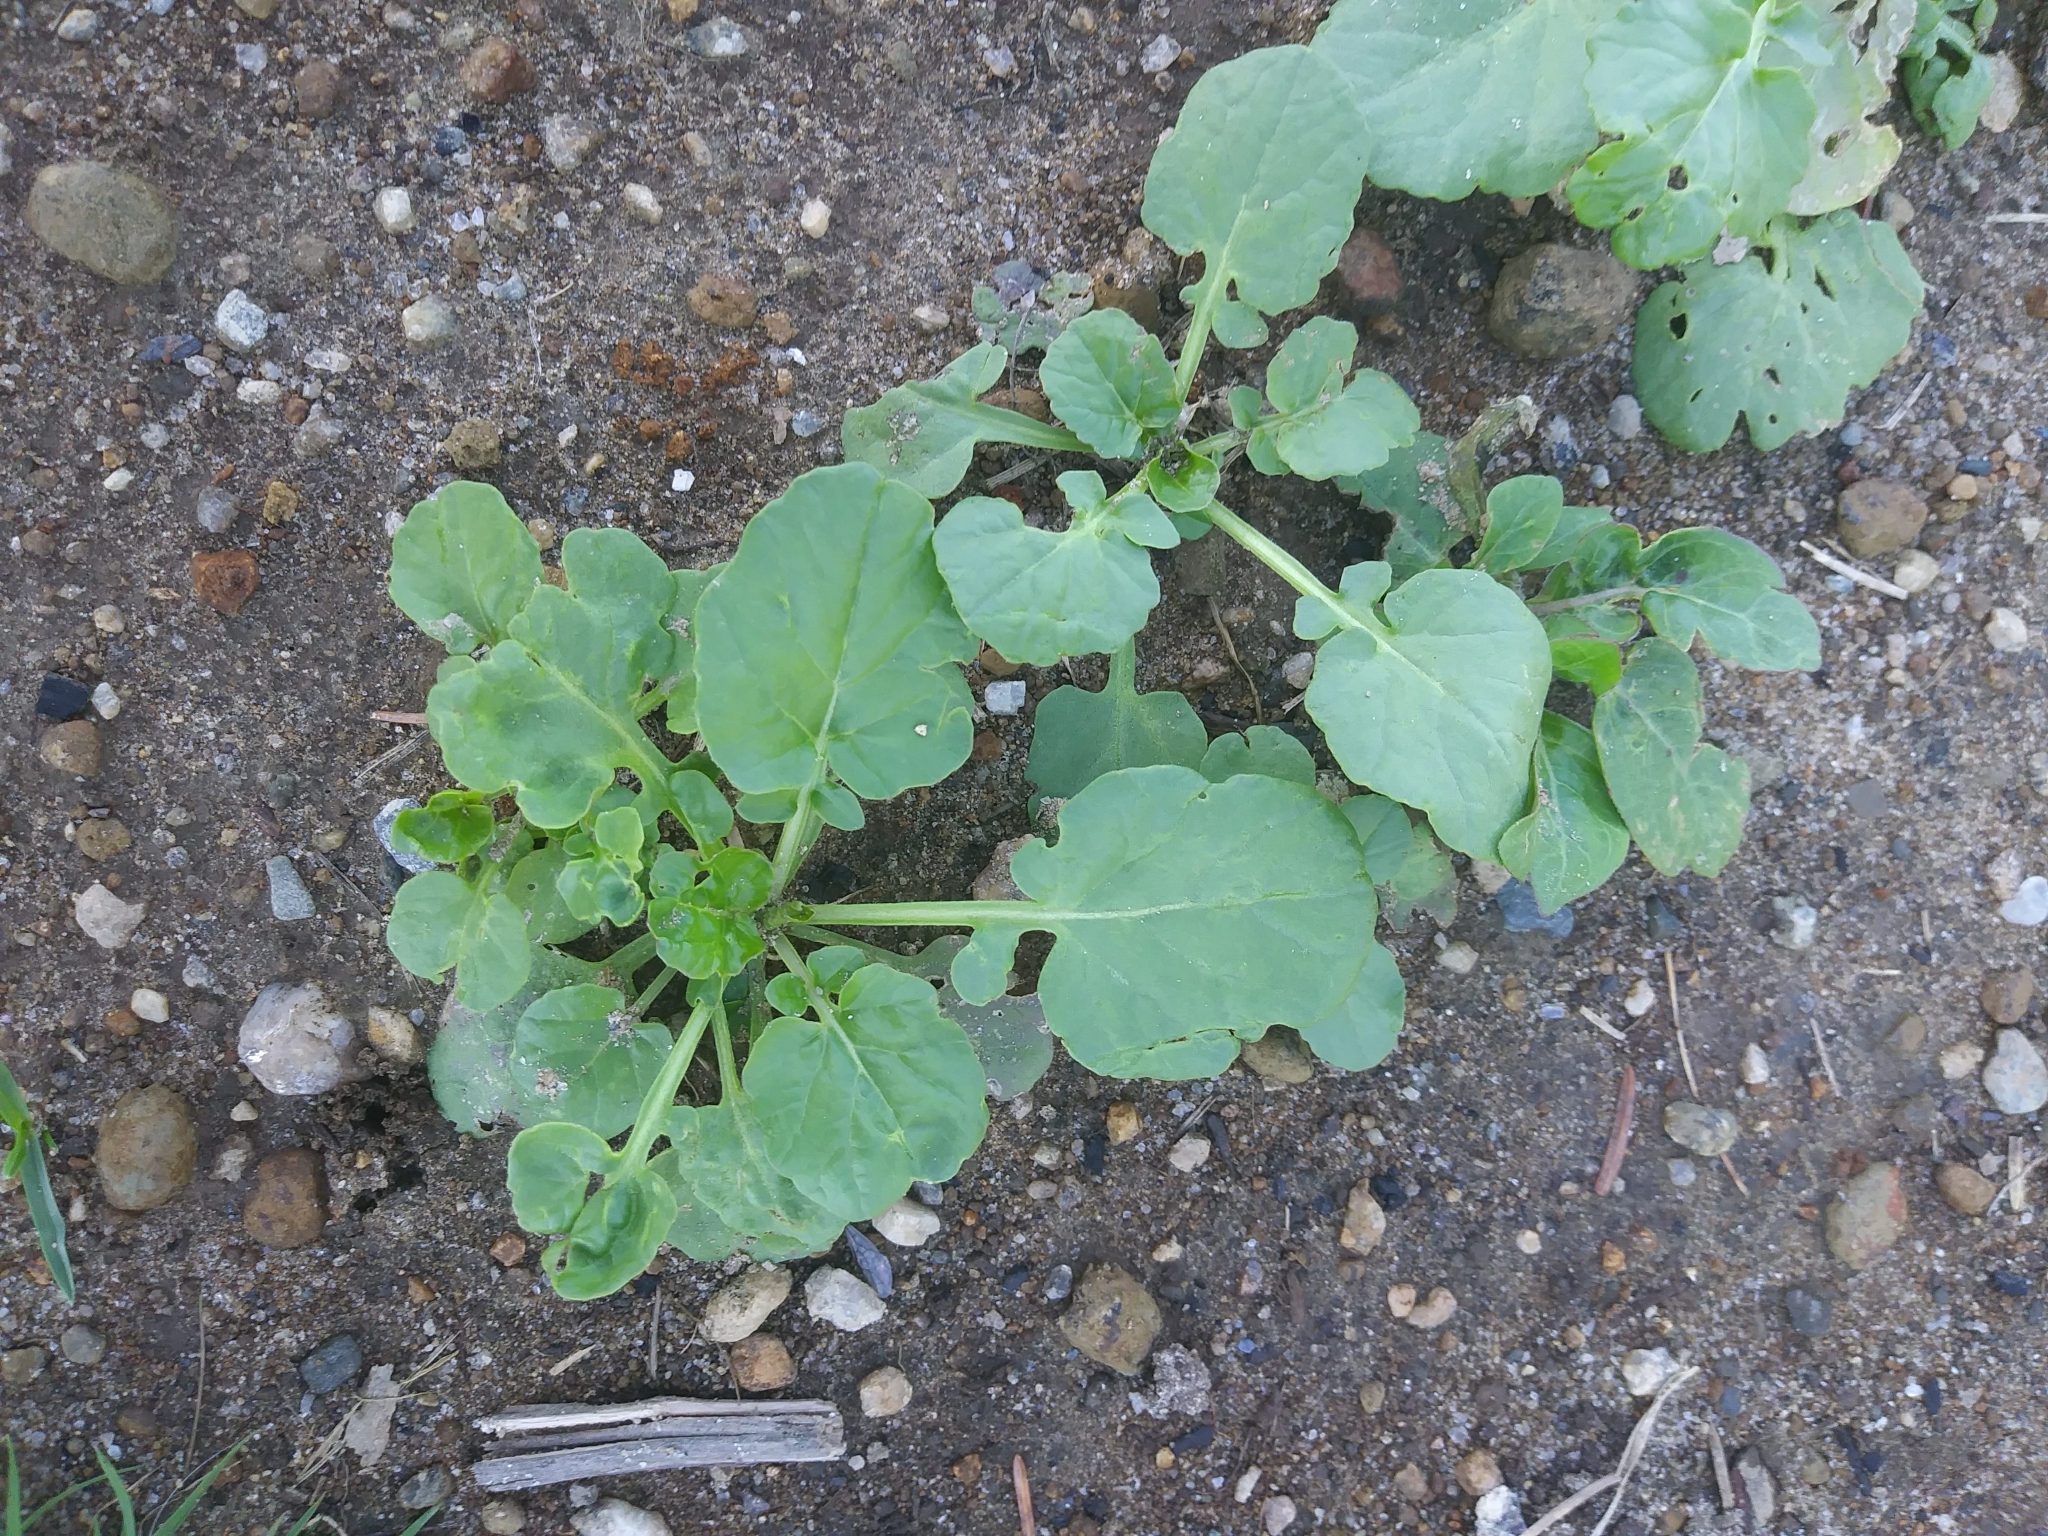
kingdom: Plantae
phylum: Tracheophyta
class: Magnoliopsida
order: Brassicales
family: Brassicaceae
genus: Barbarea
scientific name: Barbarea vulgaris
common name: Cressy-greens
